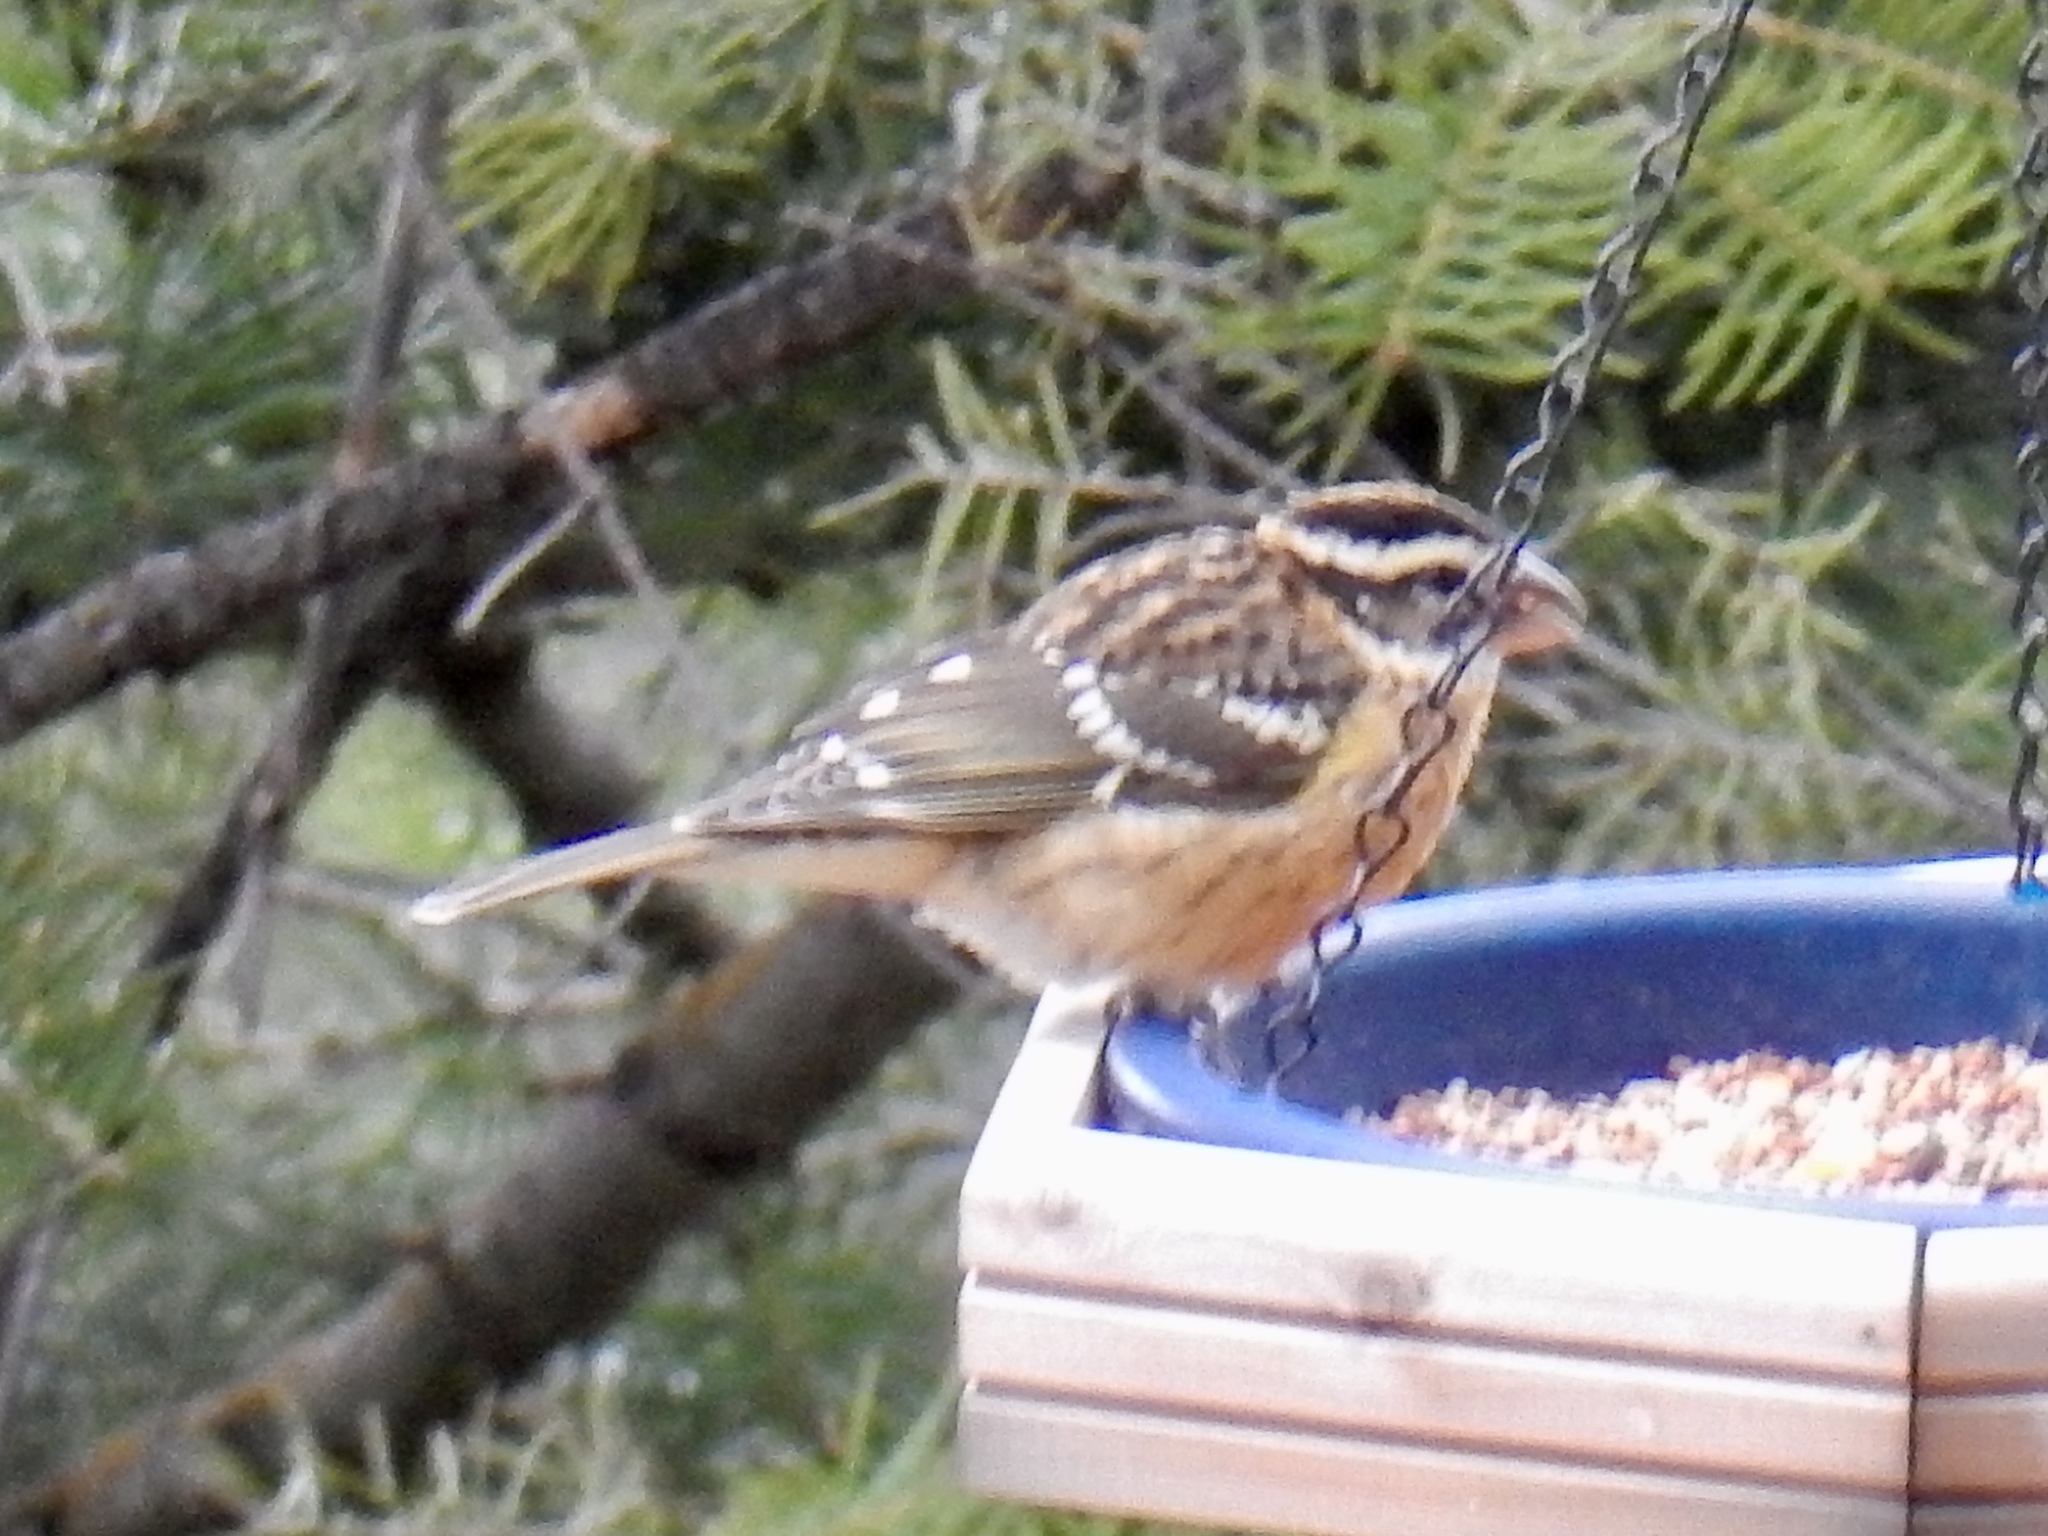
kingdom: Animalia
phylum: Chordata
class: Aves
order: Passeriformes
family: Cardinalidae
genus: Pheucticus
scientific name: Pheucticus melanocephalus
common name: Black-headed grosbeak
